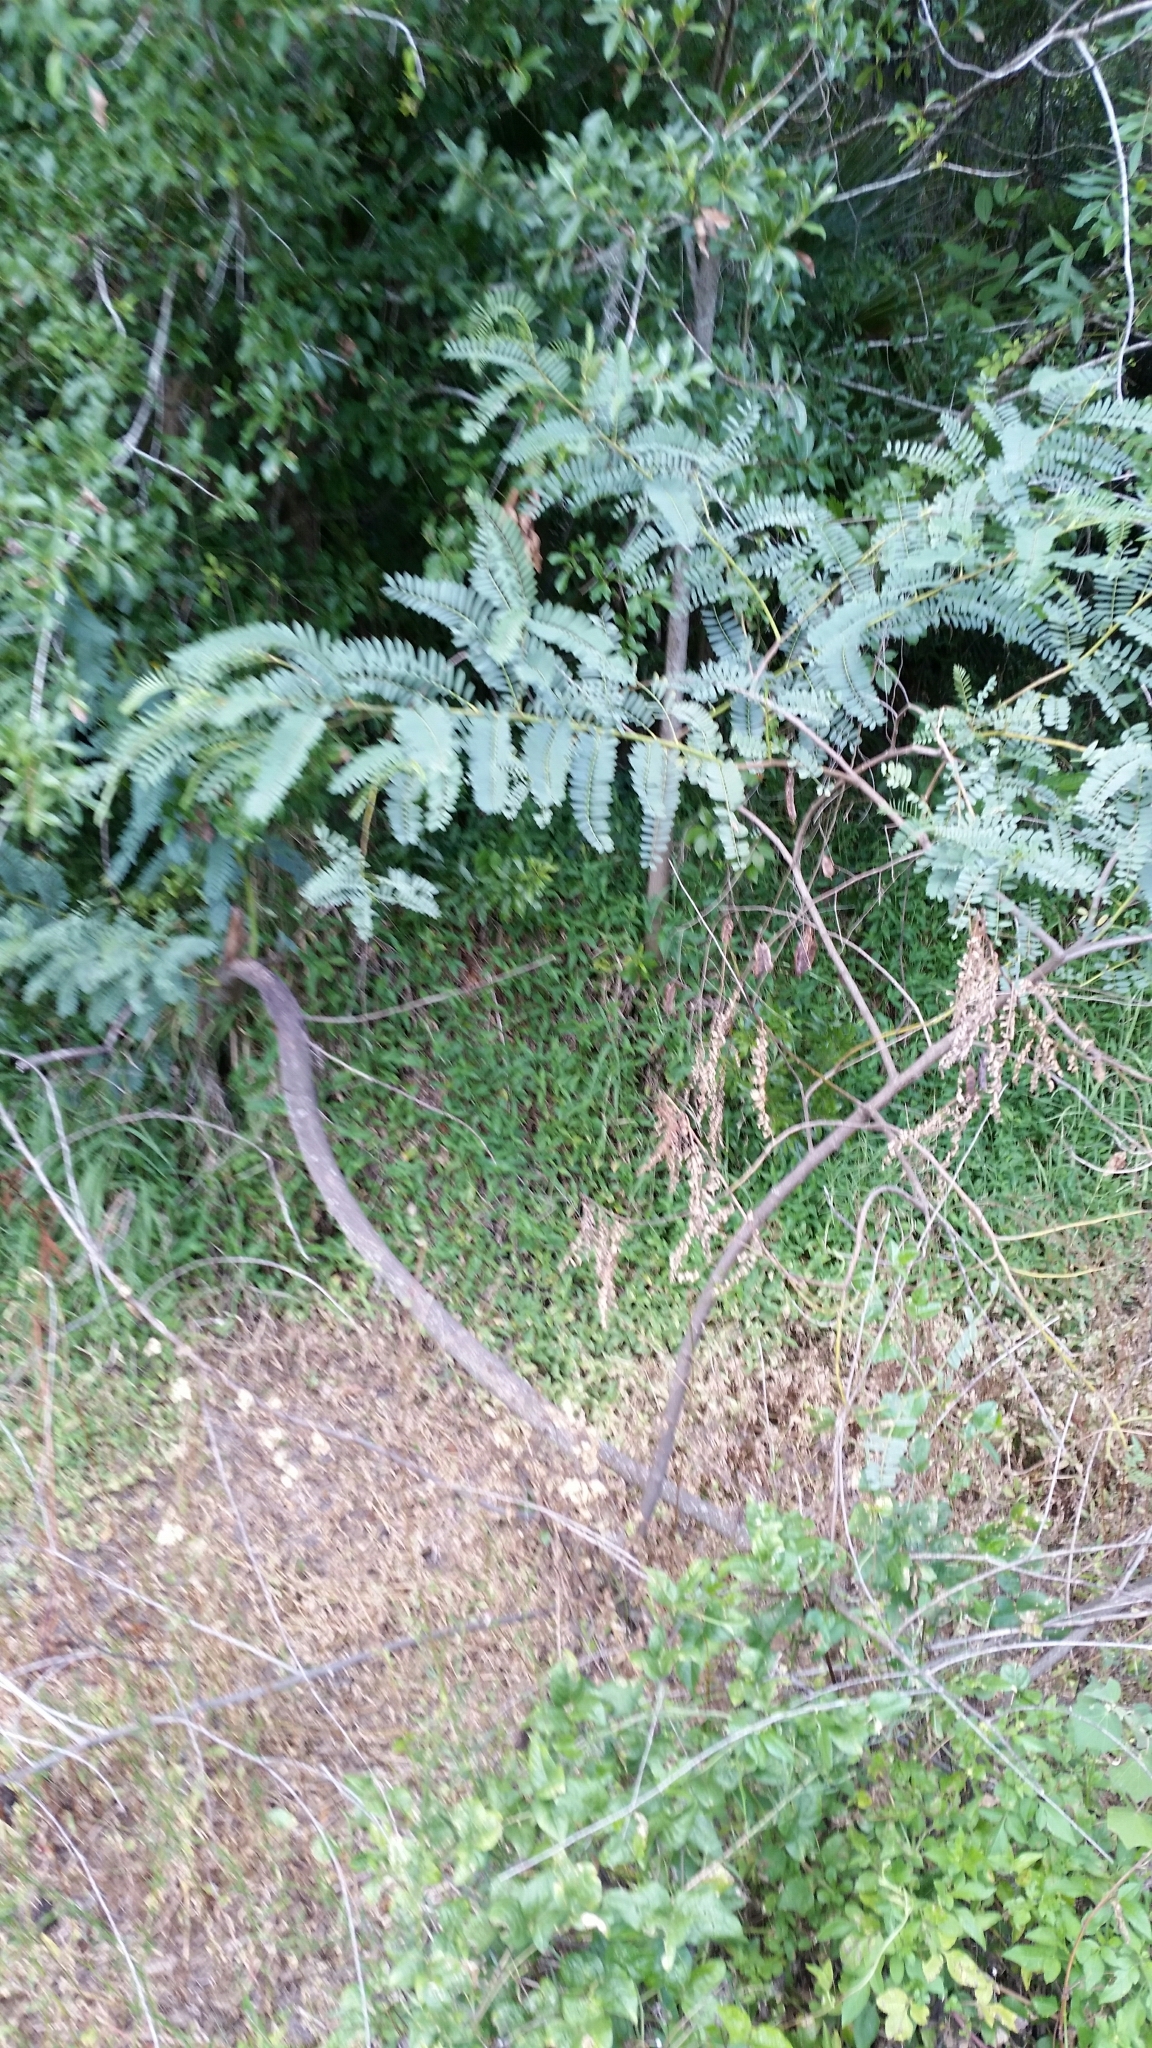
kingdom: Plantae
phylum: Tracheophyta
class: Magnoliopsida
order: Fabales
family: Fabaceae
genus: Sesbania
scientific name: Sesbania punicea
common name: Rattlebox
